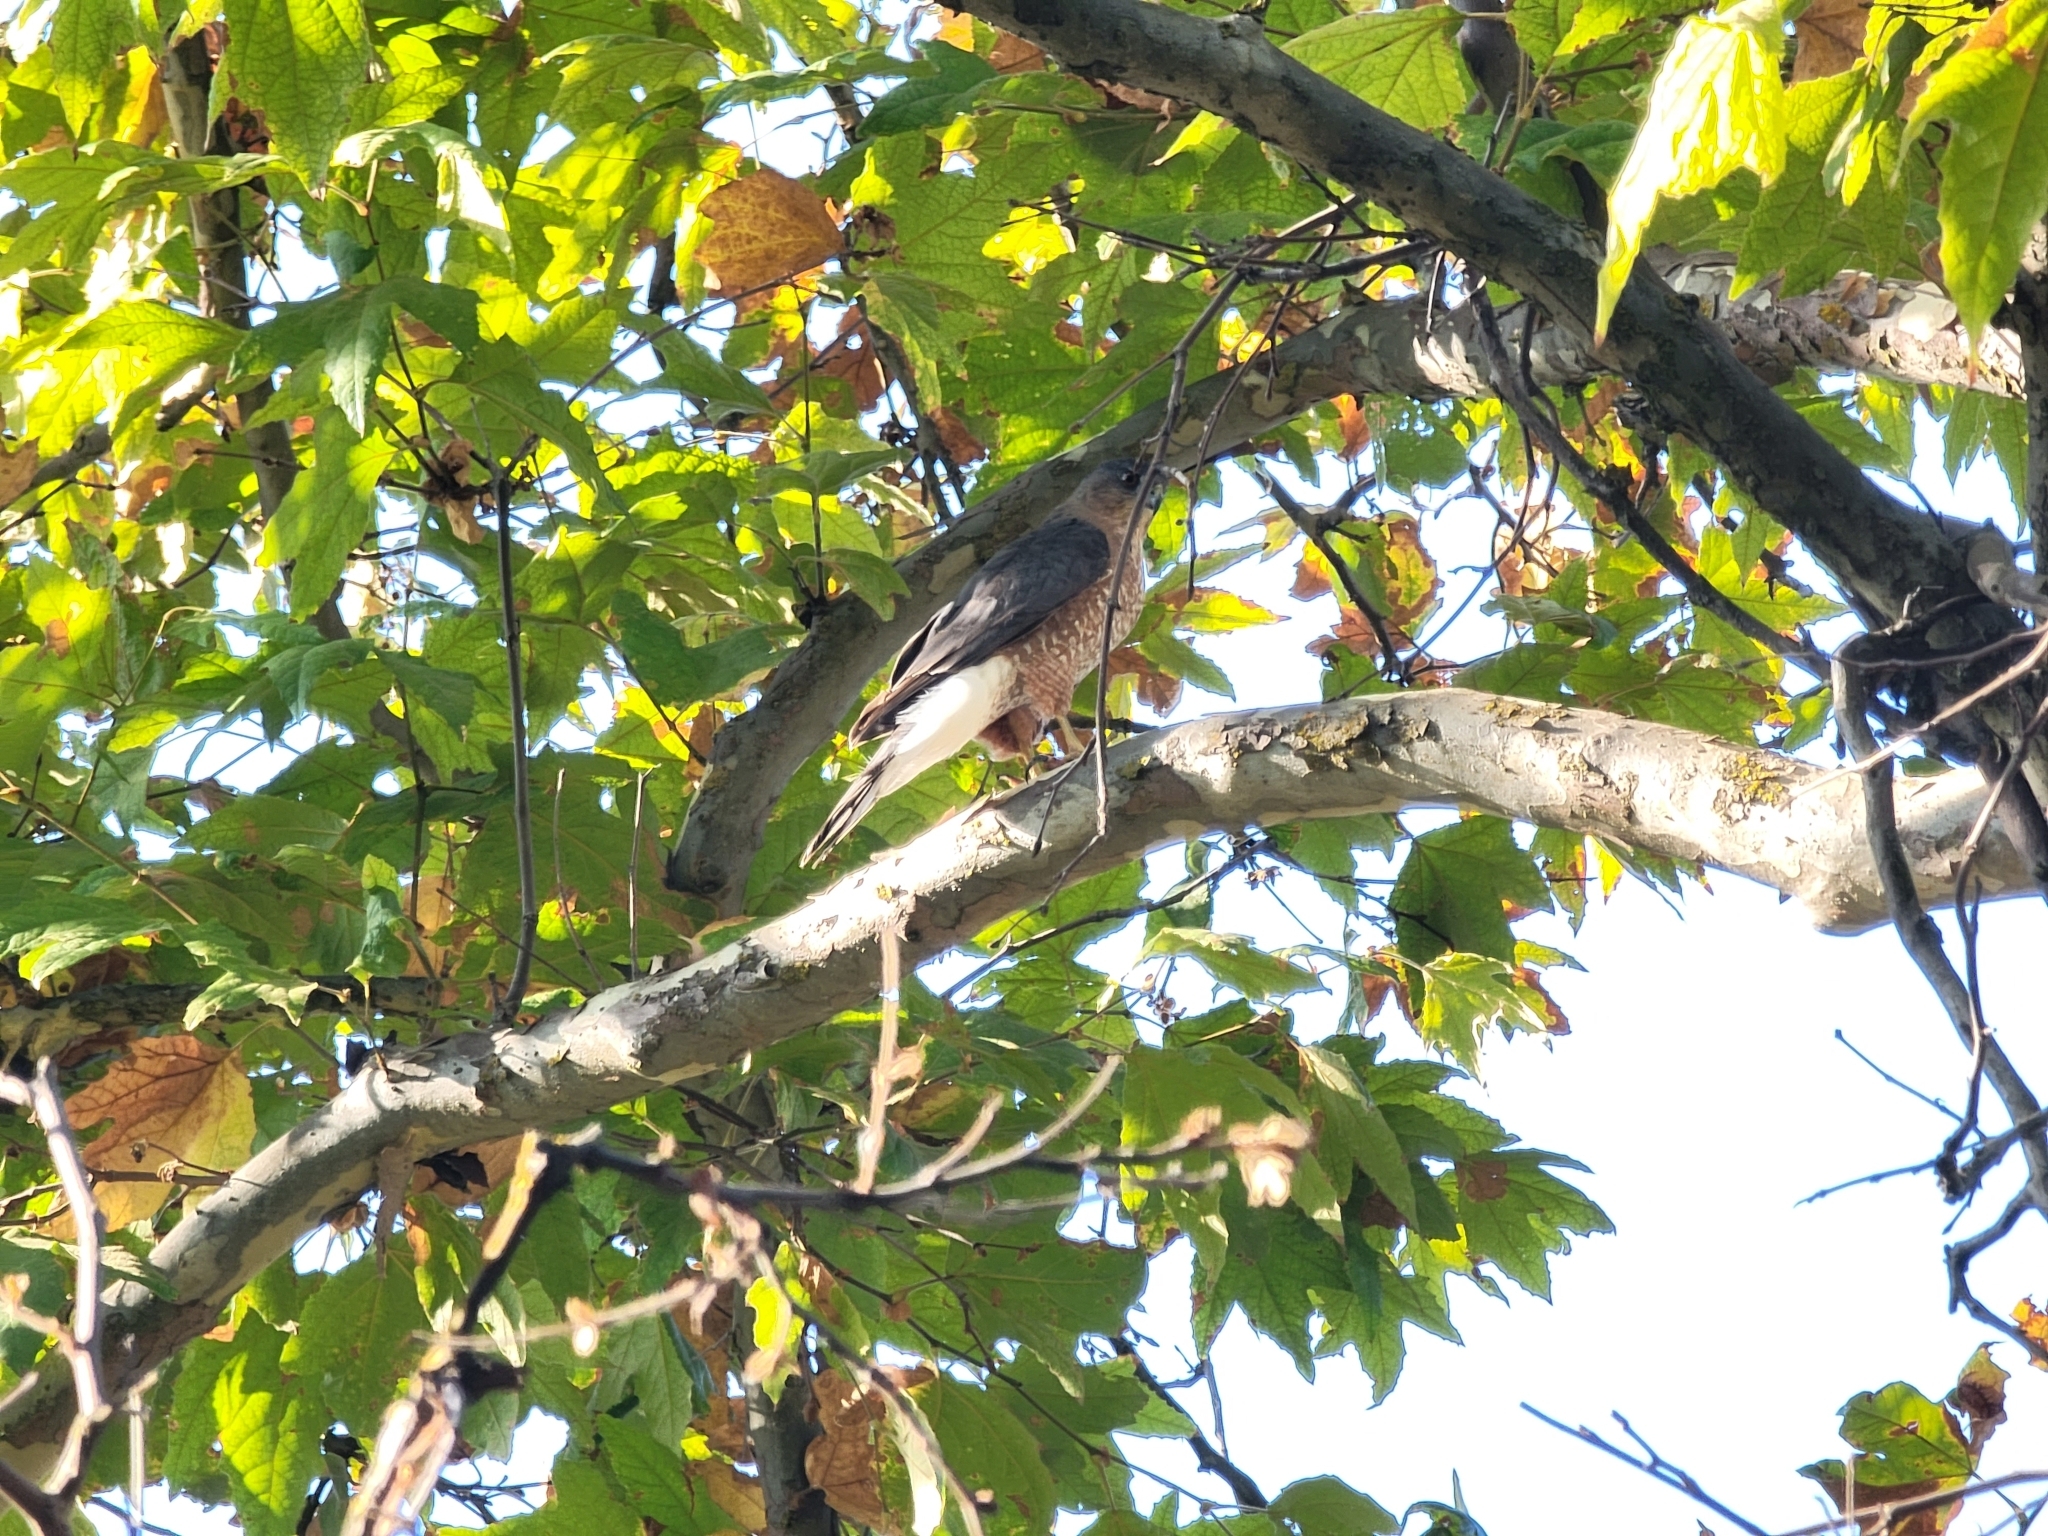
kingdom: Animalia
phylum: Chordata
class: Aves
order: Accipitriformes
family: Accipitridae
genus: Accipiter
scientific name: Accipiter cooperii
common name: Cooper's hawk
